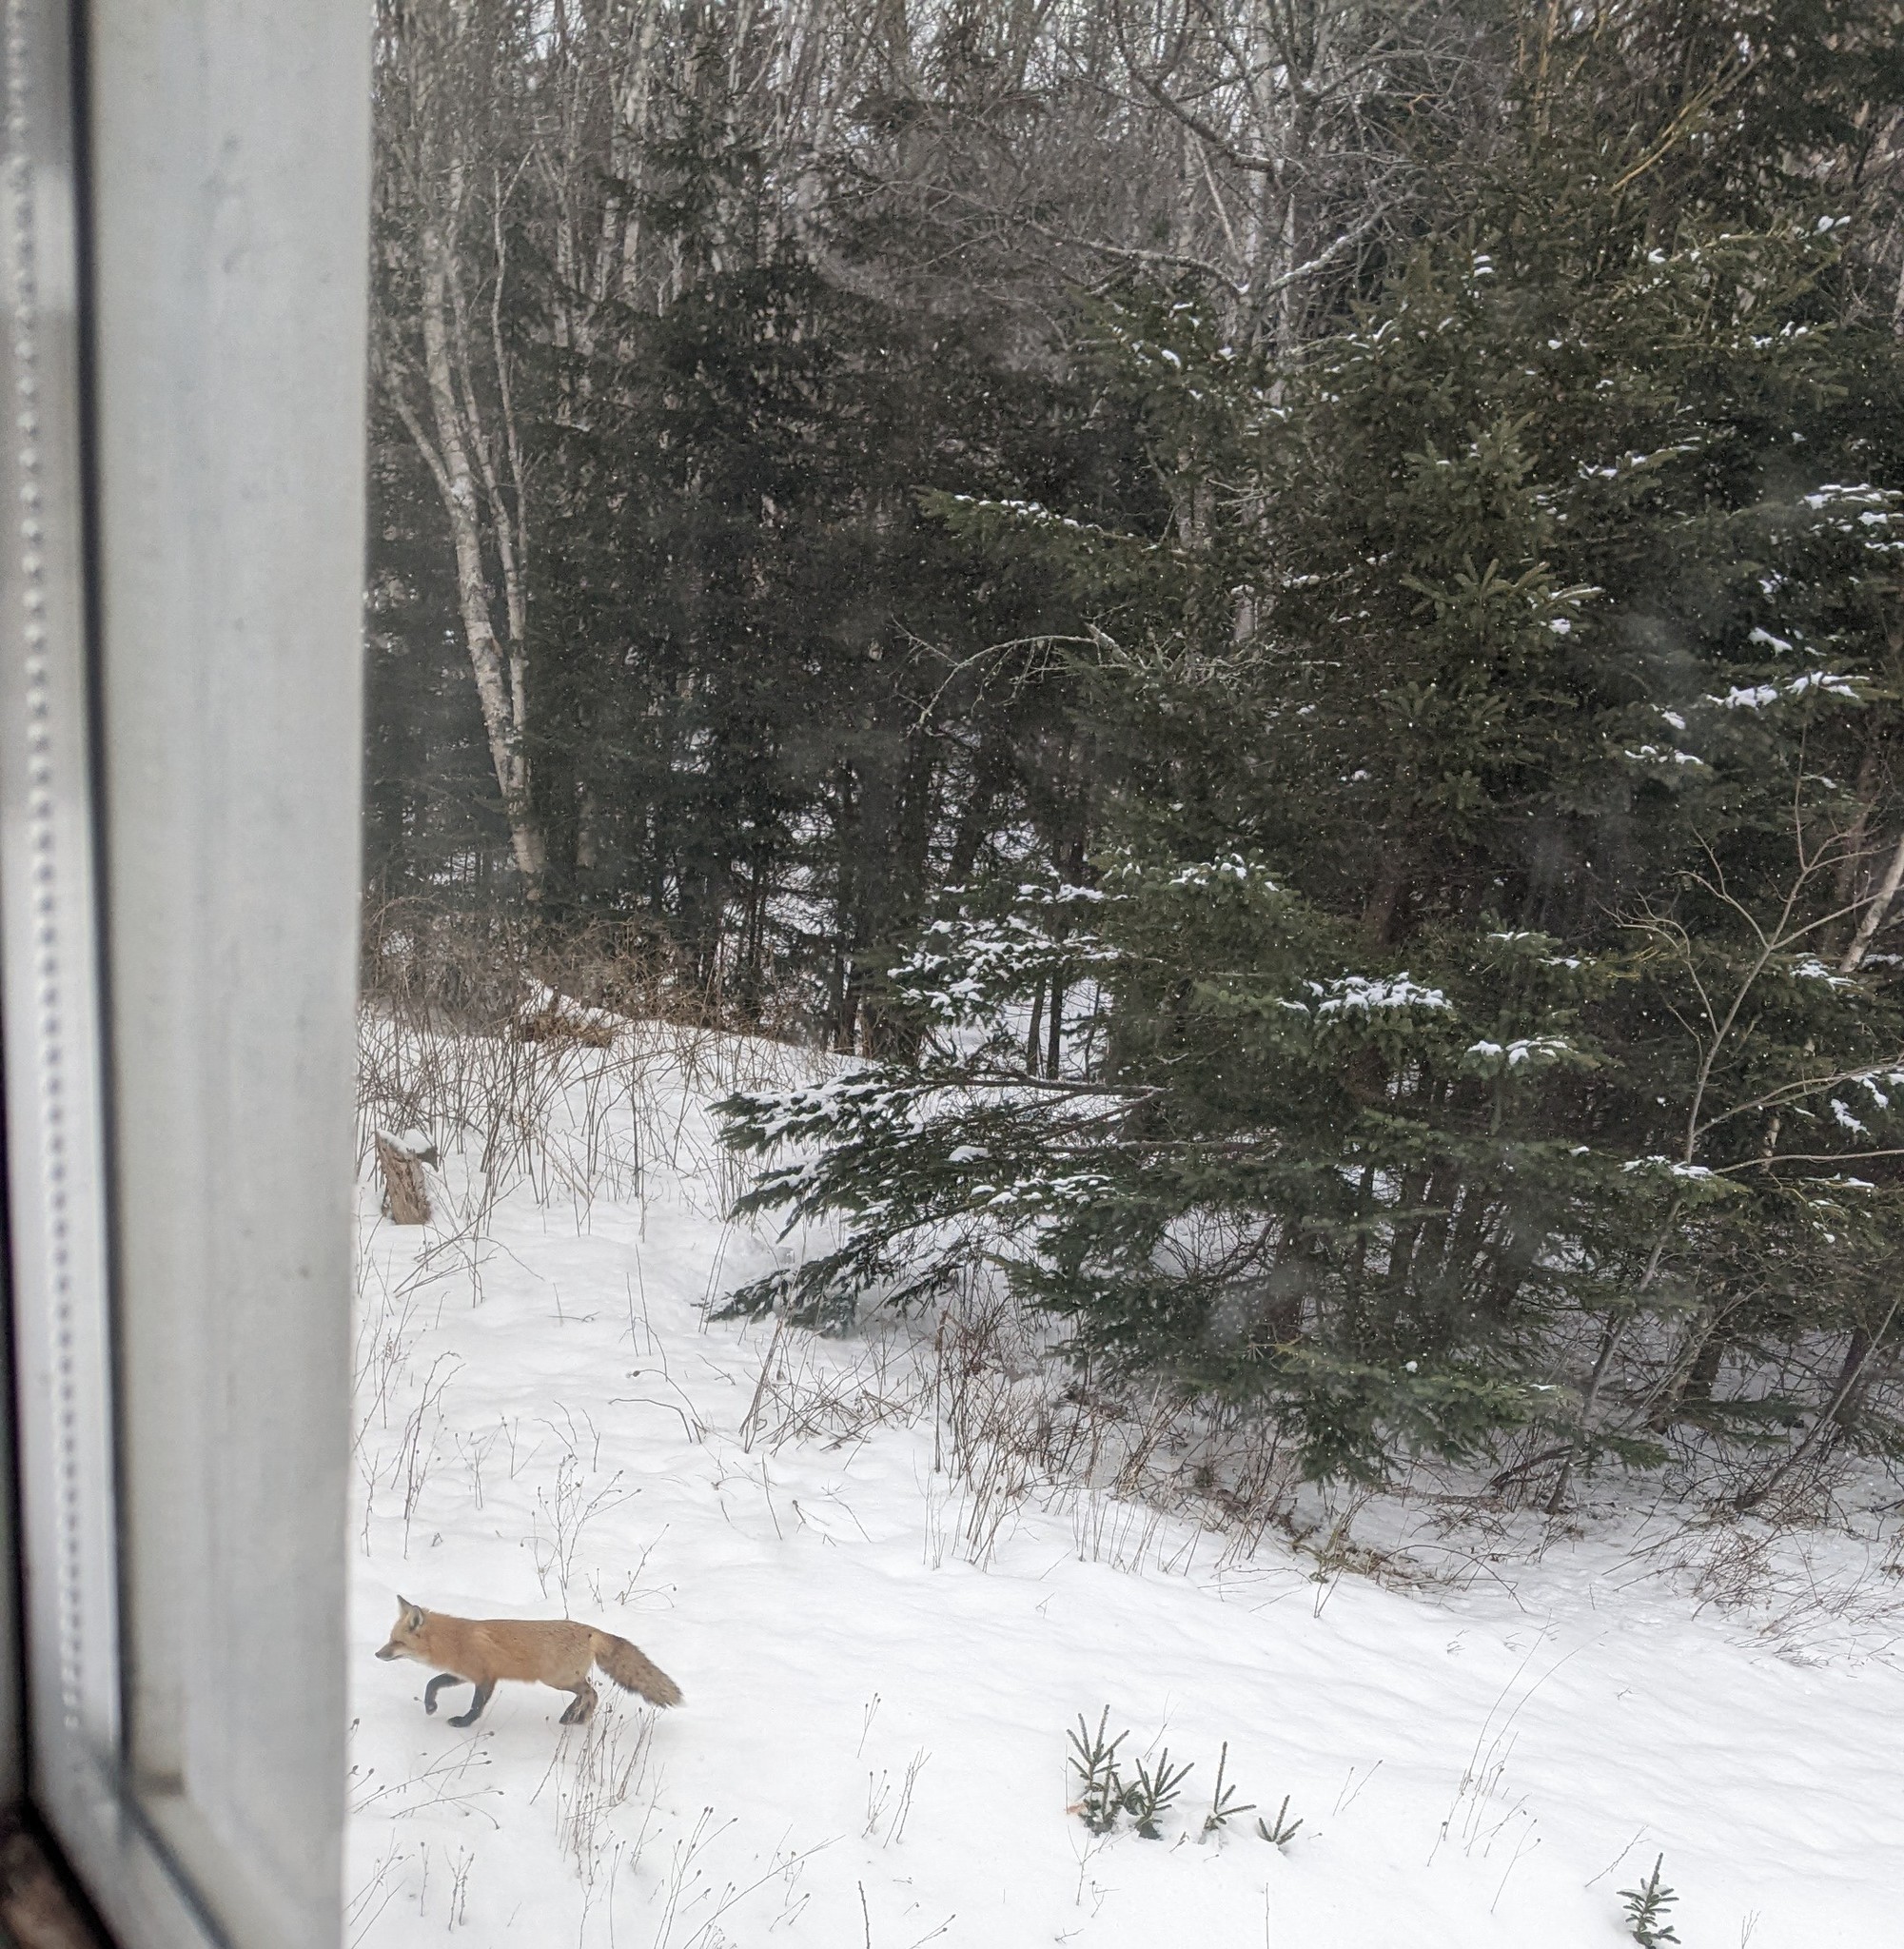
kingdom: Animalia
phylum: Chordata
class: Mammalia
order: Carnivora
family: Canidae
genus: Vulpes
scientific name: Vulpes vulpes
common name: Red fox
